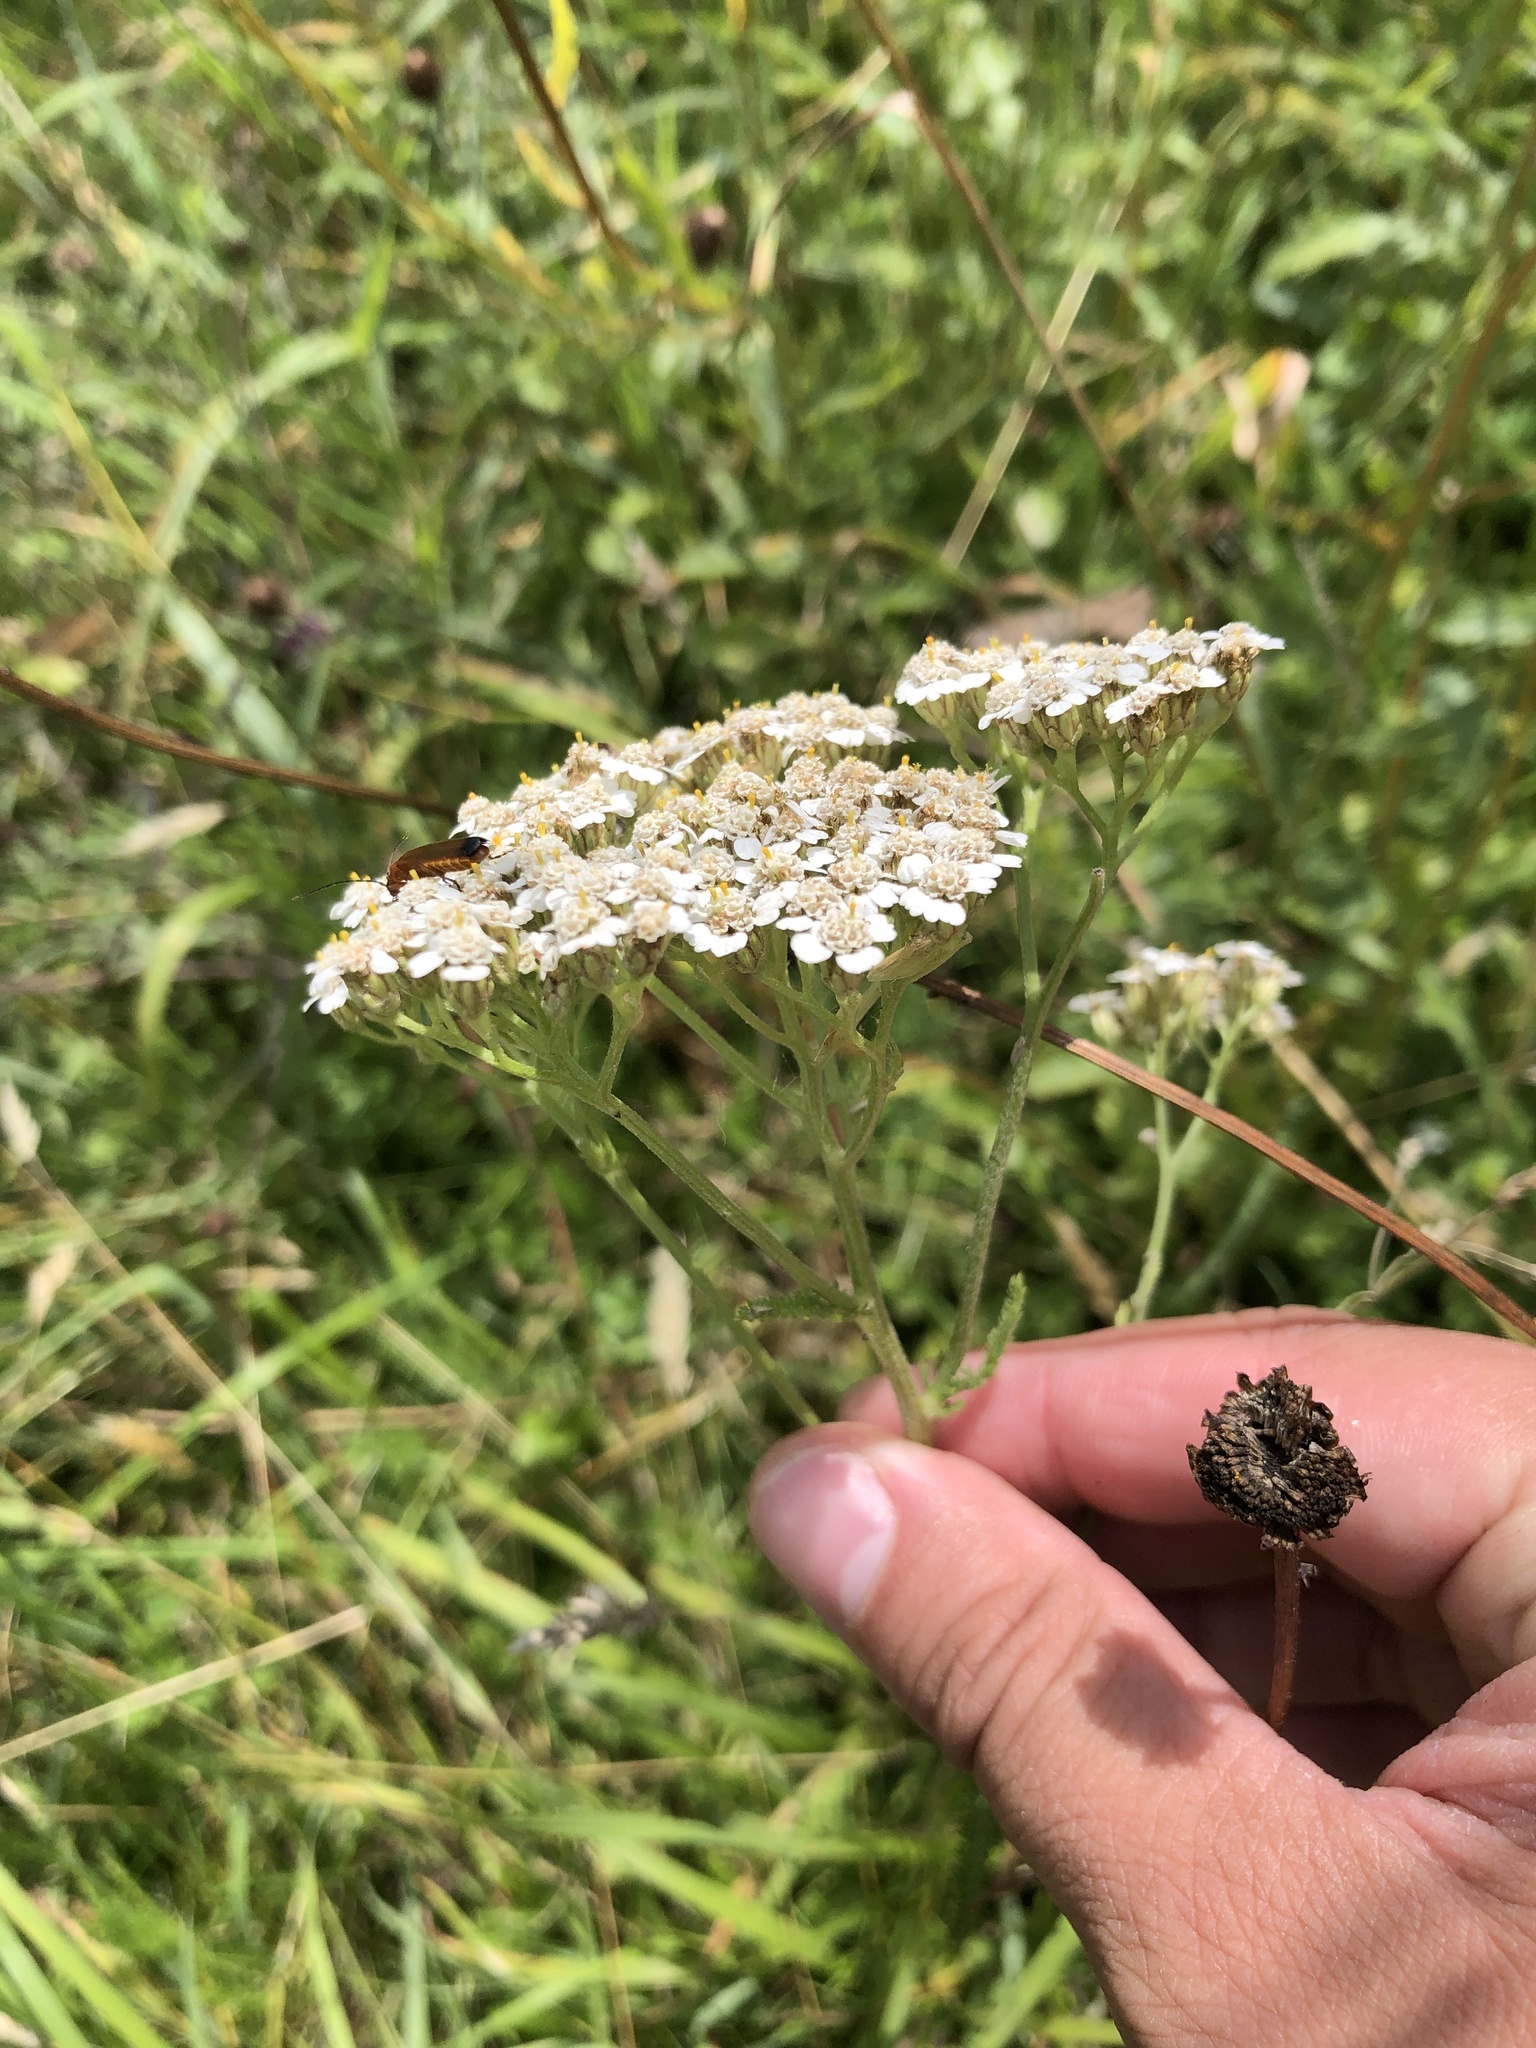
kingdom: Plantae
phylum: Tracheophyta
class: Magnoliopsida
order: Asterales
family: Asteraceae
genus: Achillea
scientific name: Achillea millefolium
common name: Yarrow
